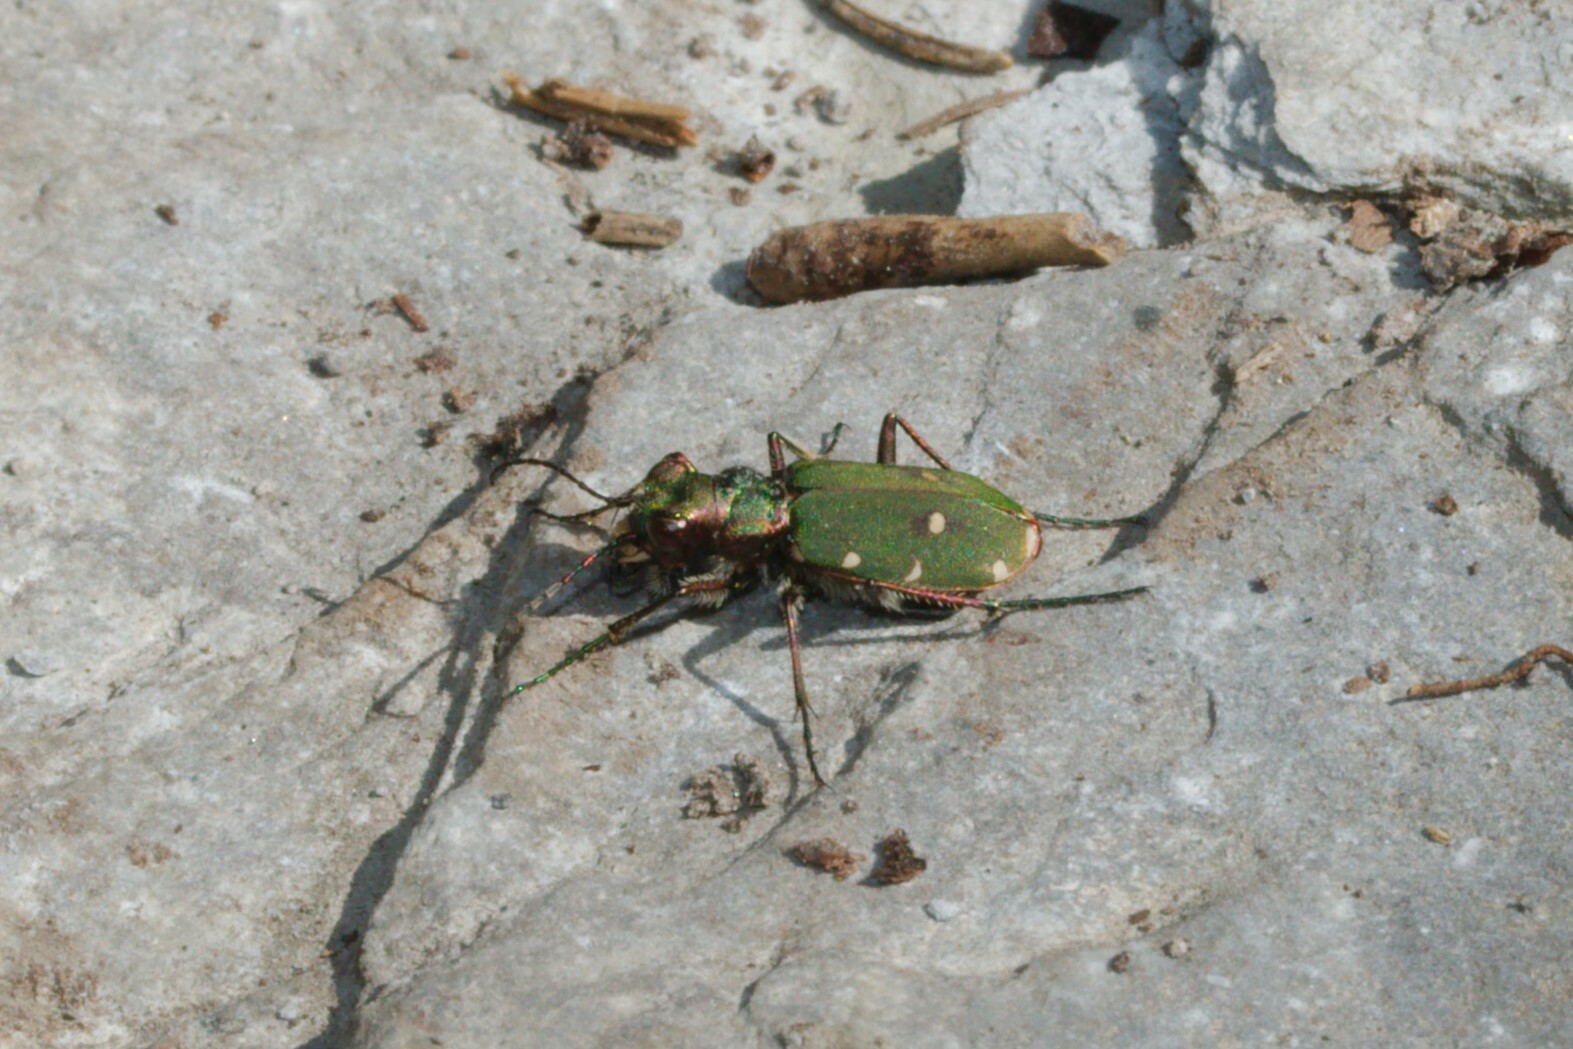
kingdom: Animalia
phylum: Arthropoda
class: Insecta
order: Coleoptera
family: Carabidae
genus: Cicindela
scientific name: Cicindela campestris
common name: Common tiger beetle
